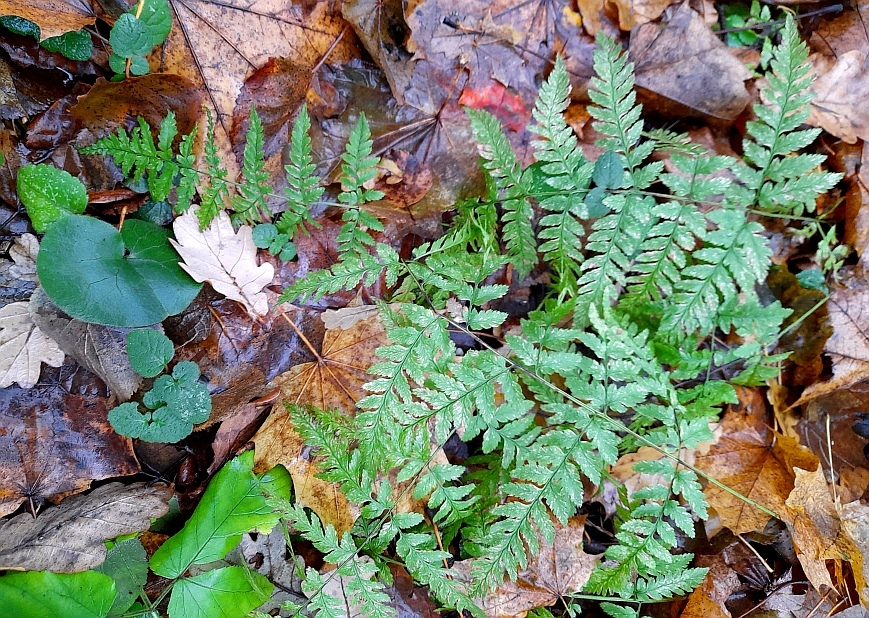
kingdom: Plantae
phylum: Tracheophyta
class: Polypodiopsida
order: Polypodiales
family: Dryopteridaceae
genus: Dryopteris
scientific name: Dryopteris carthusiana
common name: Narrow buckler-fern
